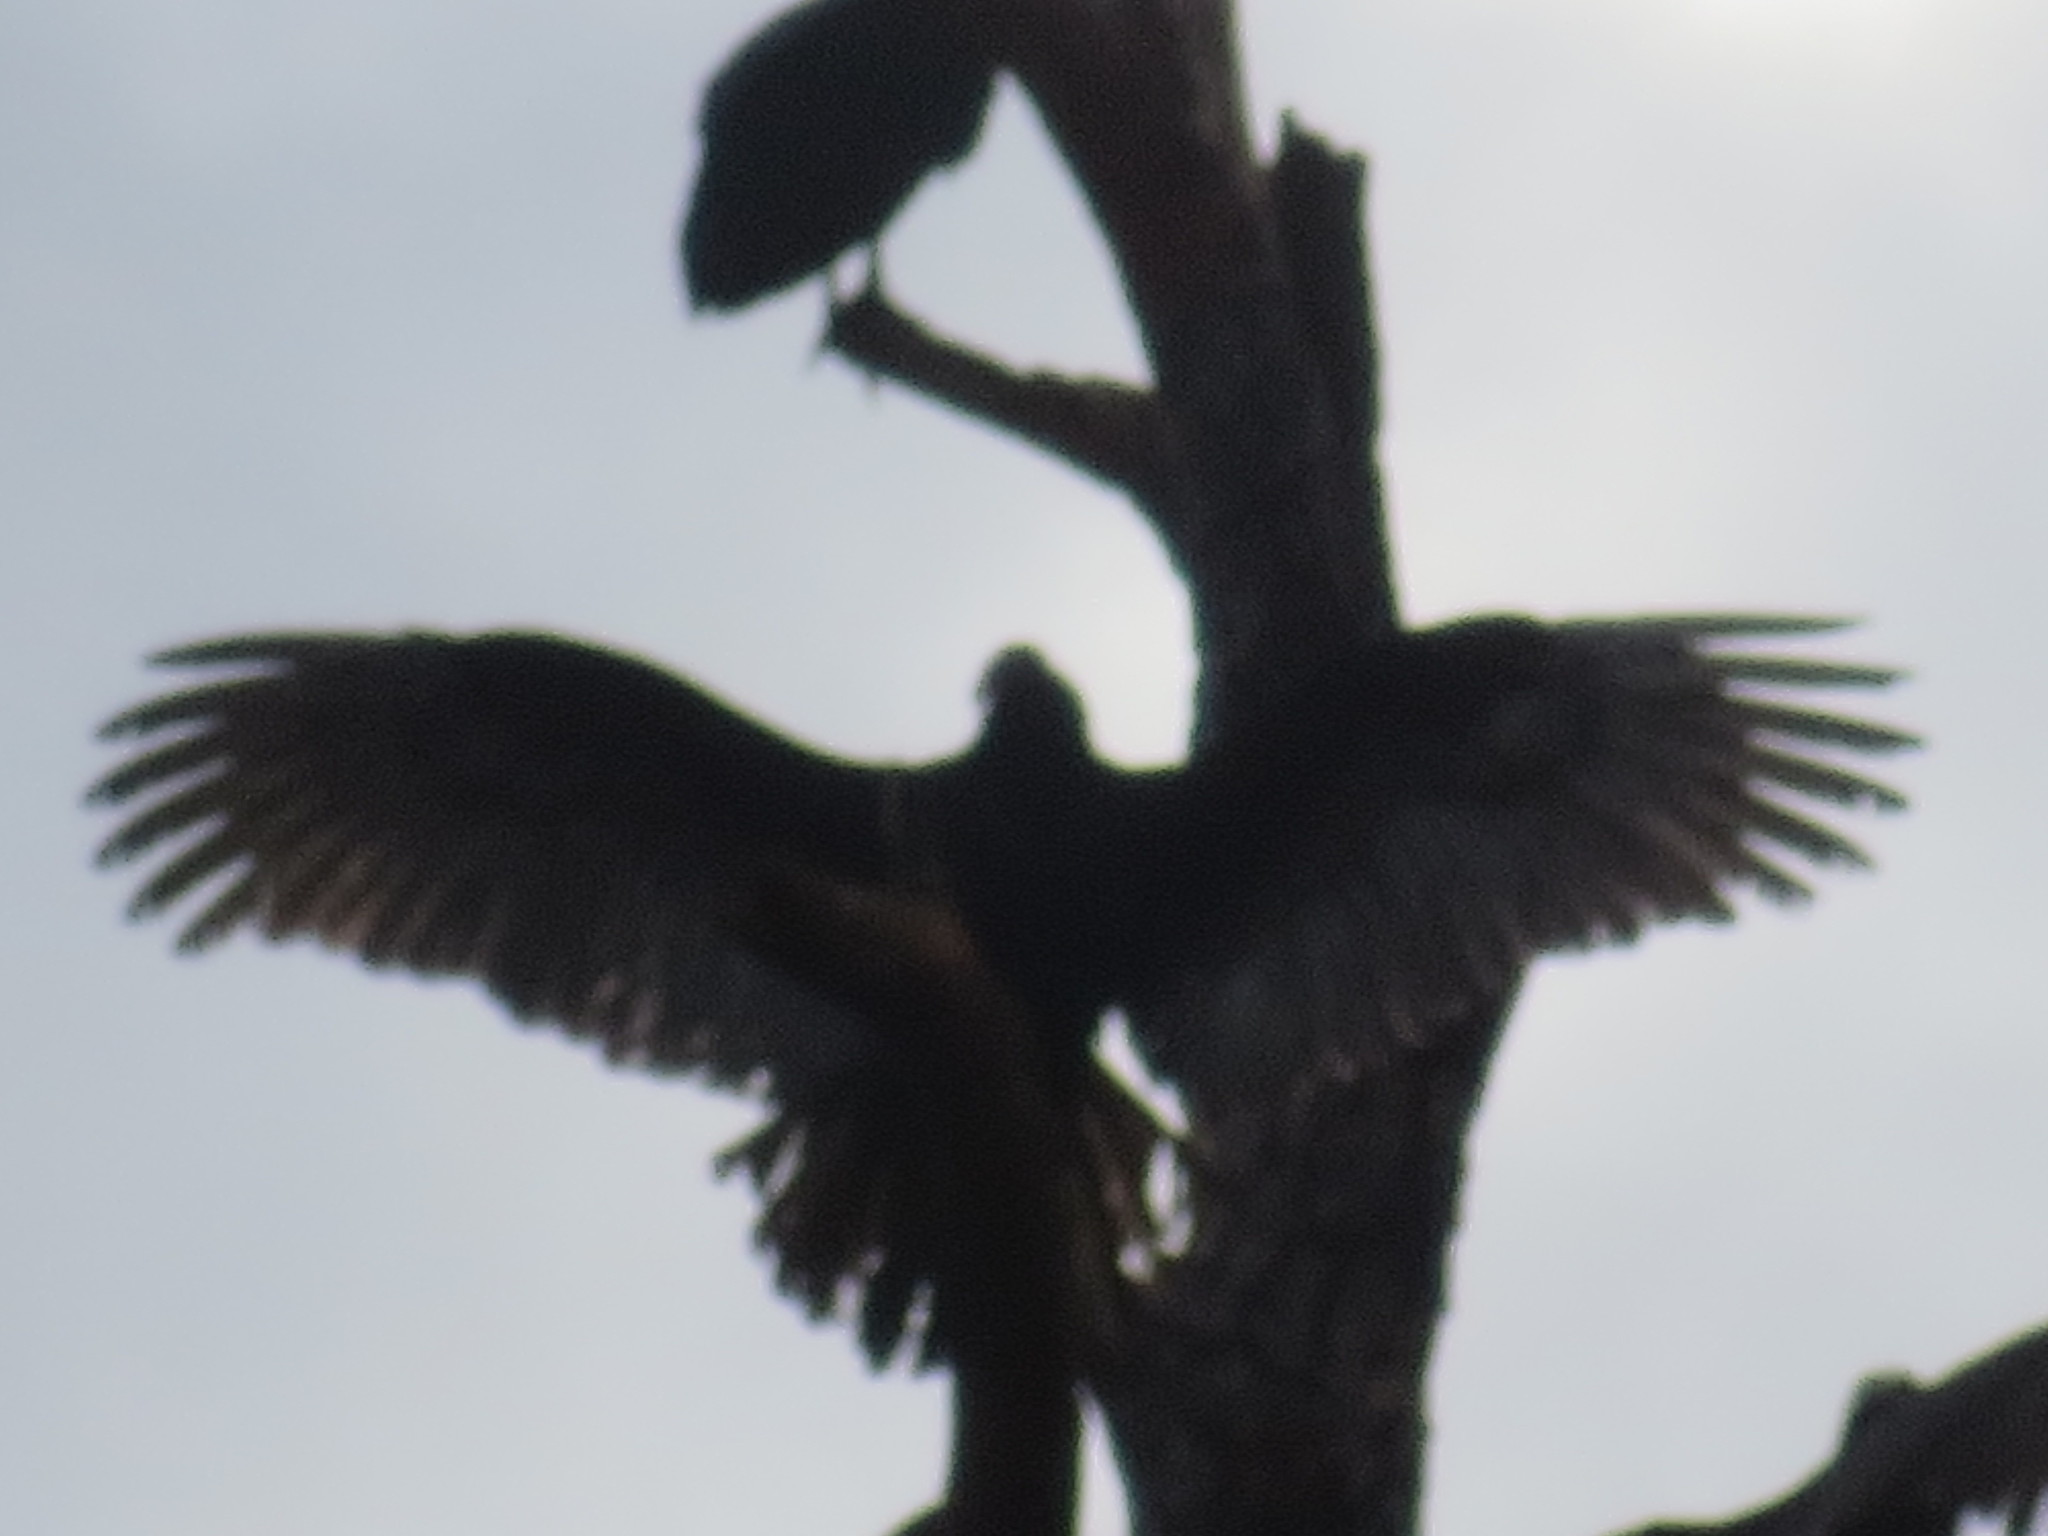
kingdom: Animalia
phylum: Chordata
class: Aves
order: Accipitriformes
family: Cathartidae
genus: Cathartes
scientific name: Cathartes aura
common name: Turkey vulture
